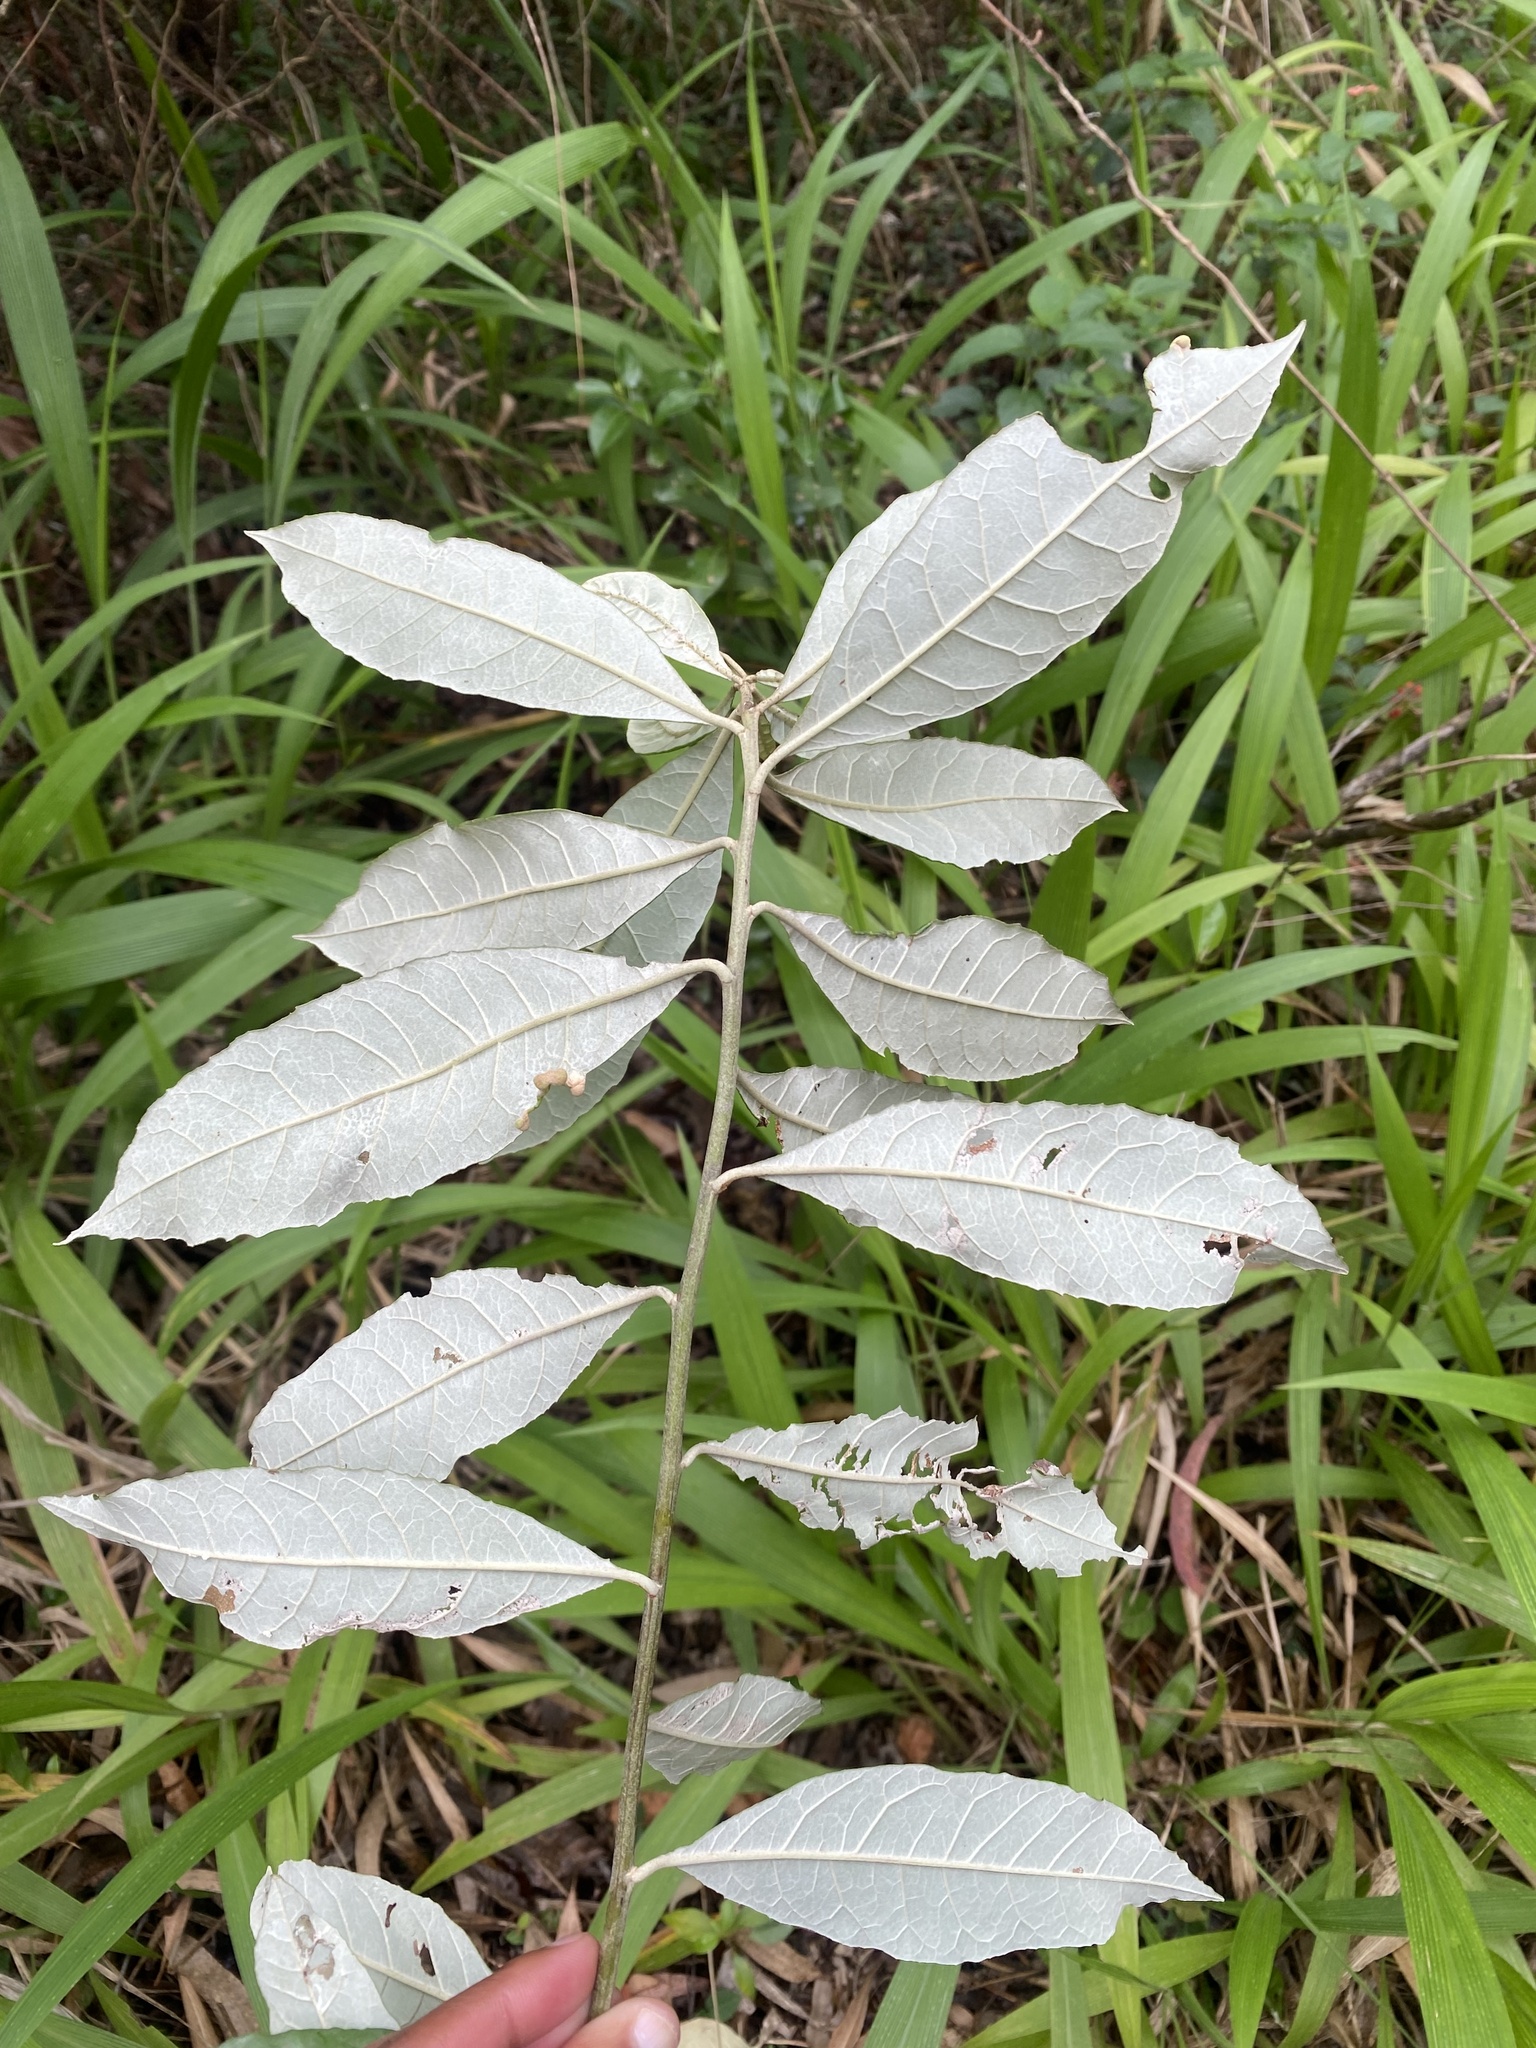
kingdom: Plantae
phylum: Tracheophyta
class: Magnoliopsida
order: Asterales
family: Asteraceae
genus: Brachylaena
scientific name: Brachylaena discolor
